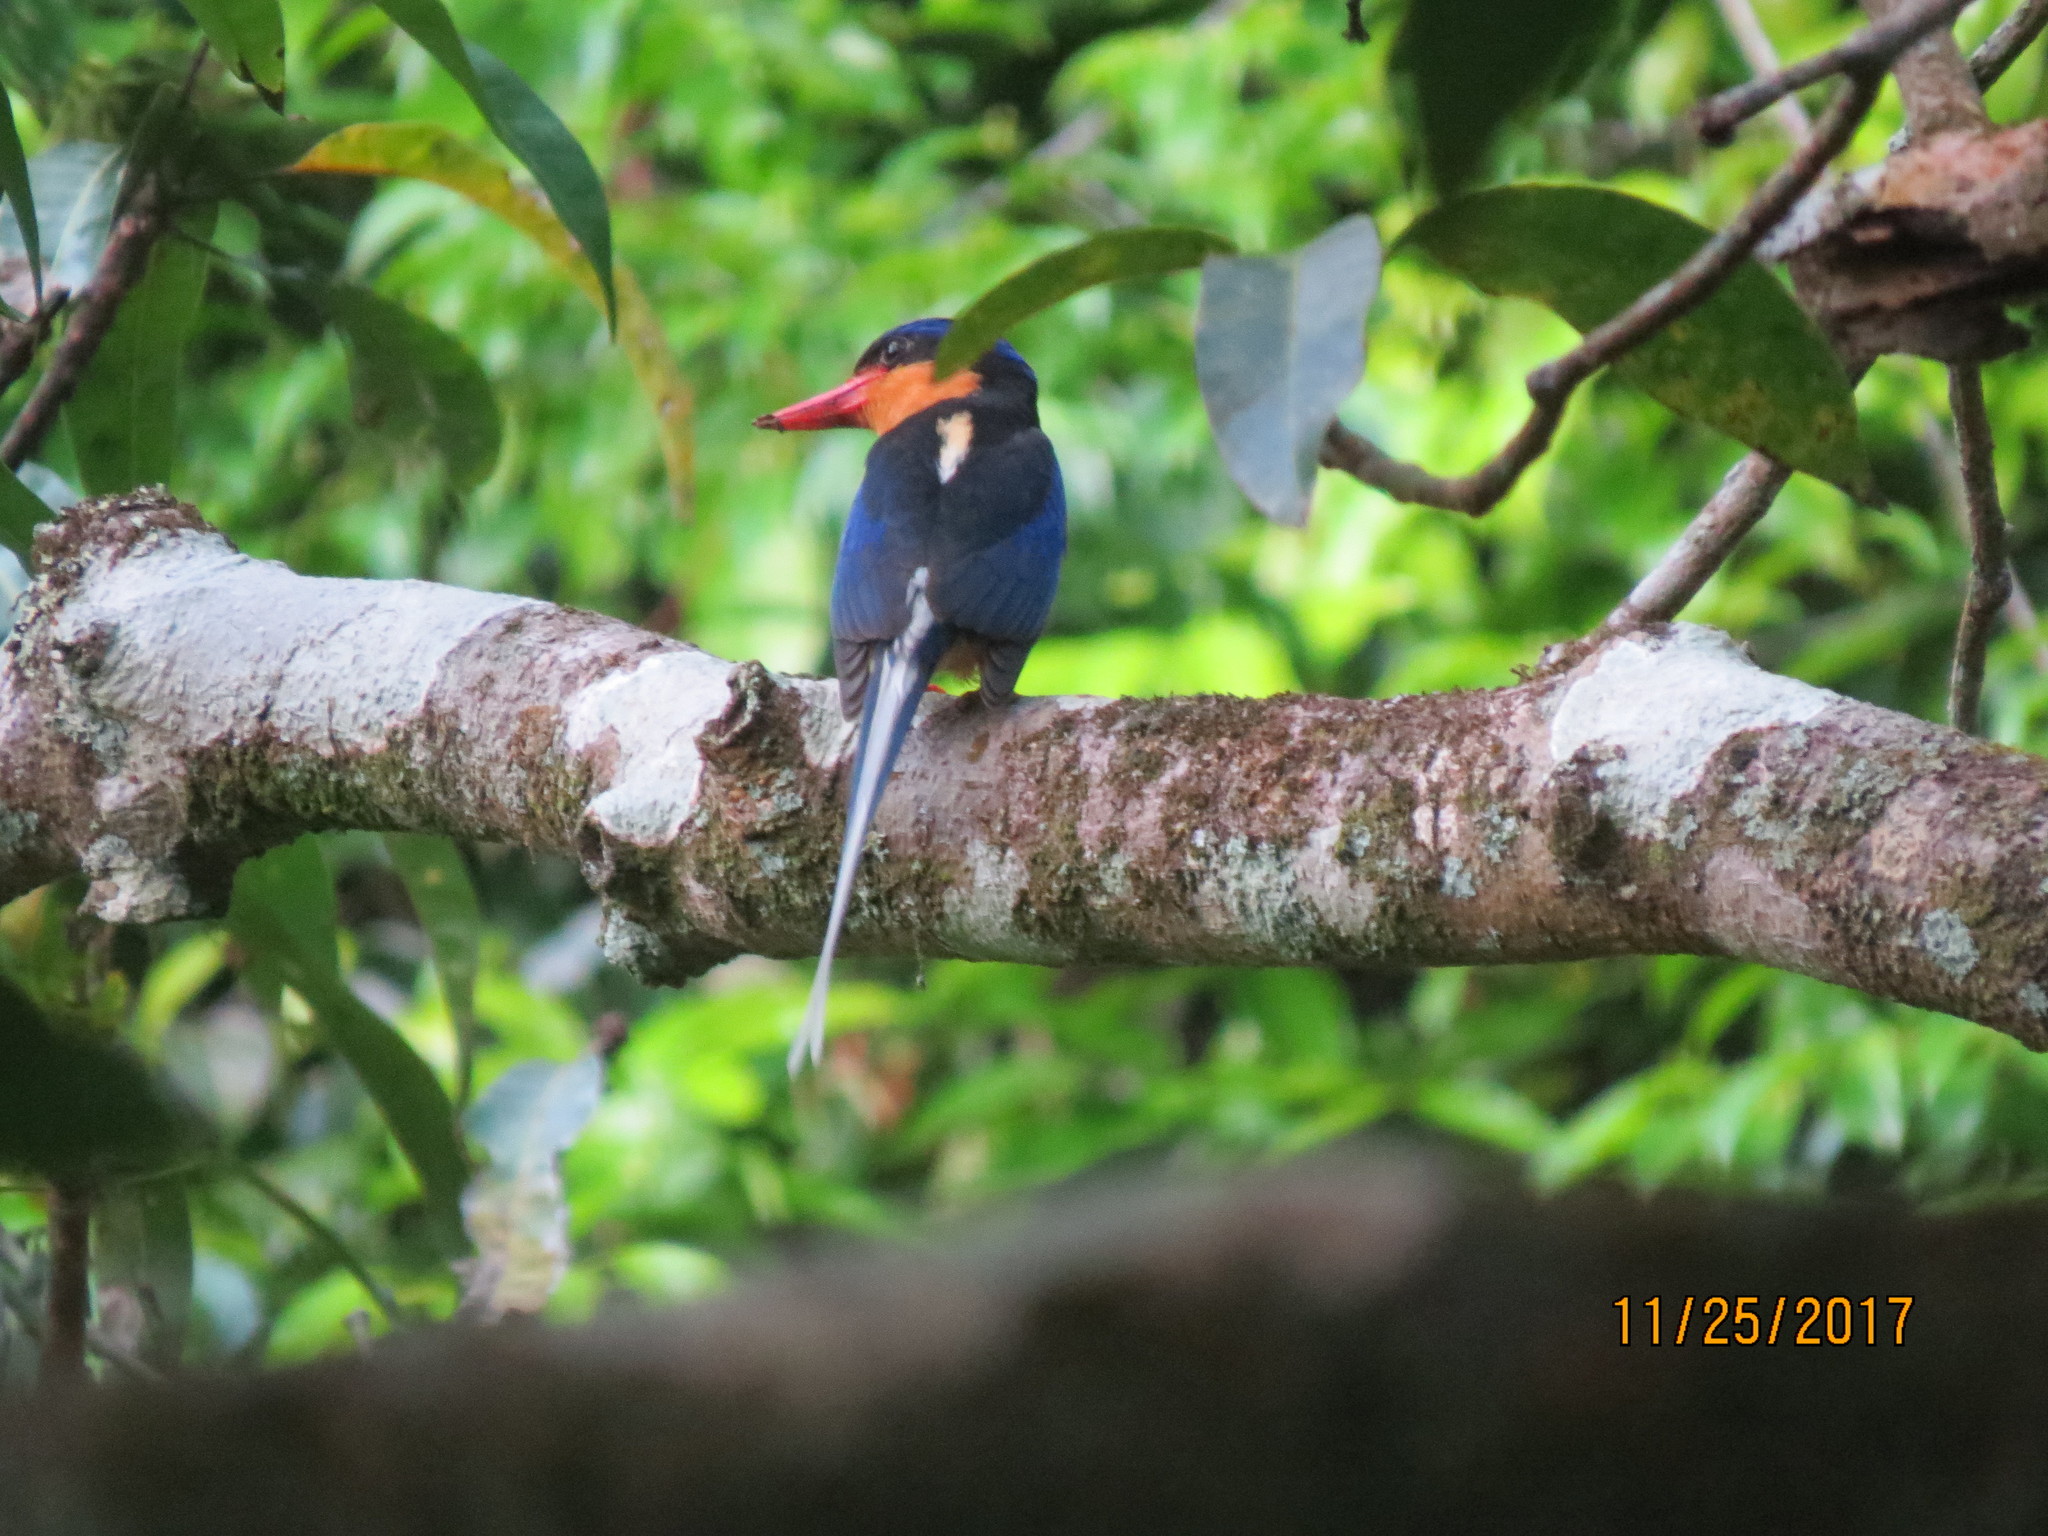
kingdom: Animalia
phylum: Chordata
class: Aves
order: Coraciiformes
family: Alcedinidae
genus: Tanysiptera
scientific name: Tanysiptera sylvia
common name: Buff-breasted paradise kingfisher
